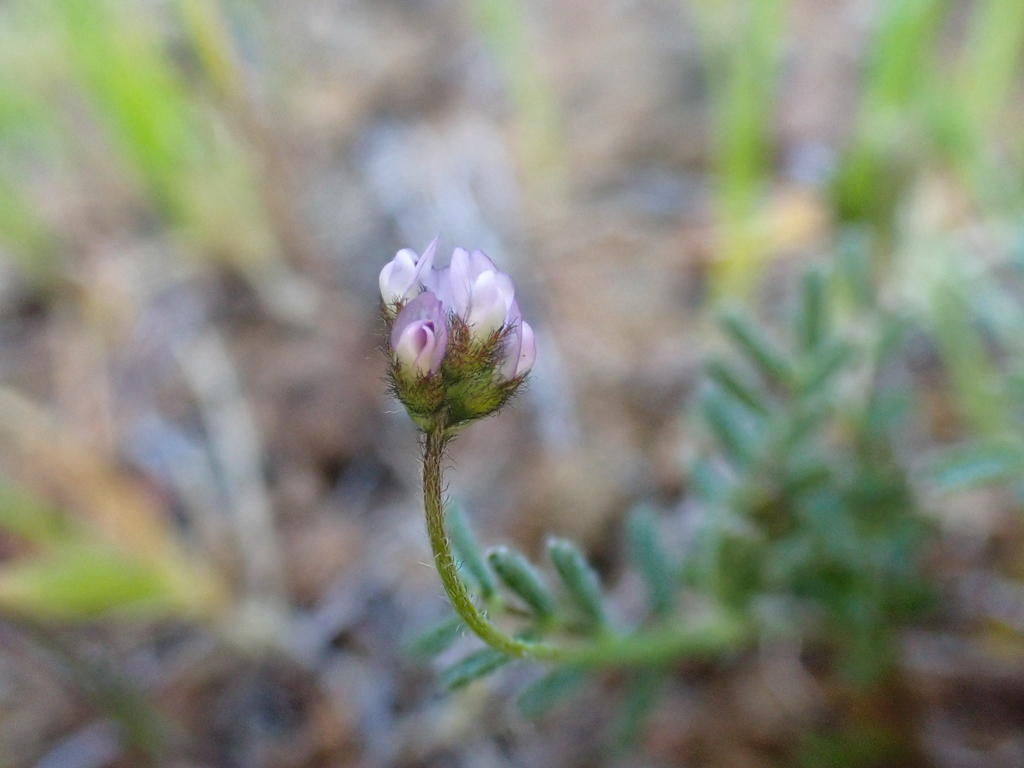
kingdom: Plantae
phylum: Tracheophyta
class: Magnoliopsida
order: Fabales
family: Fabaceae
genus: Astragalus
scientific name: Astragalus gambelianus
